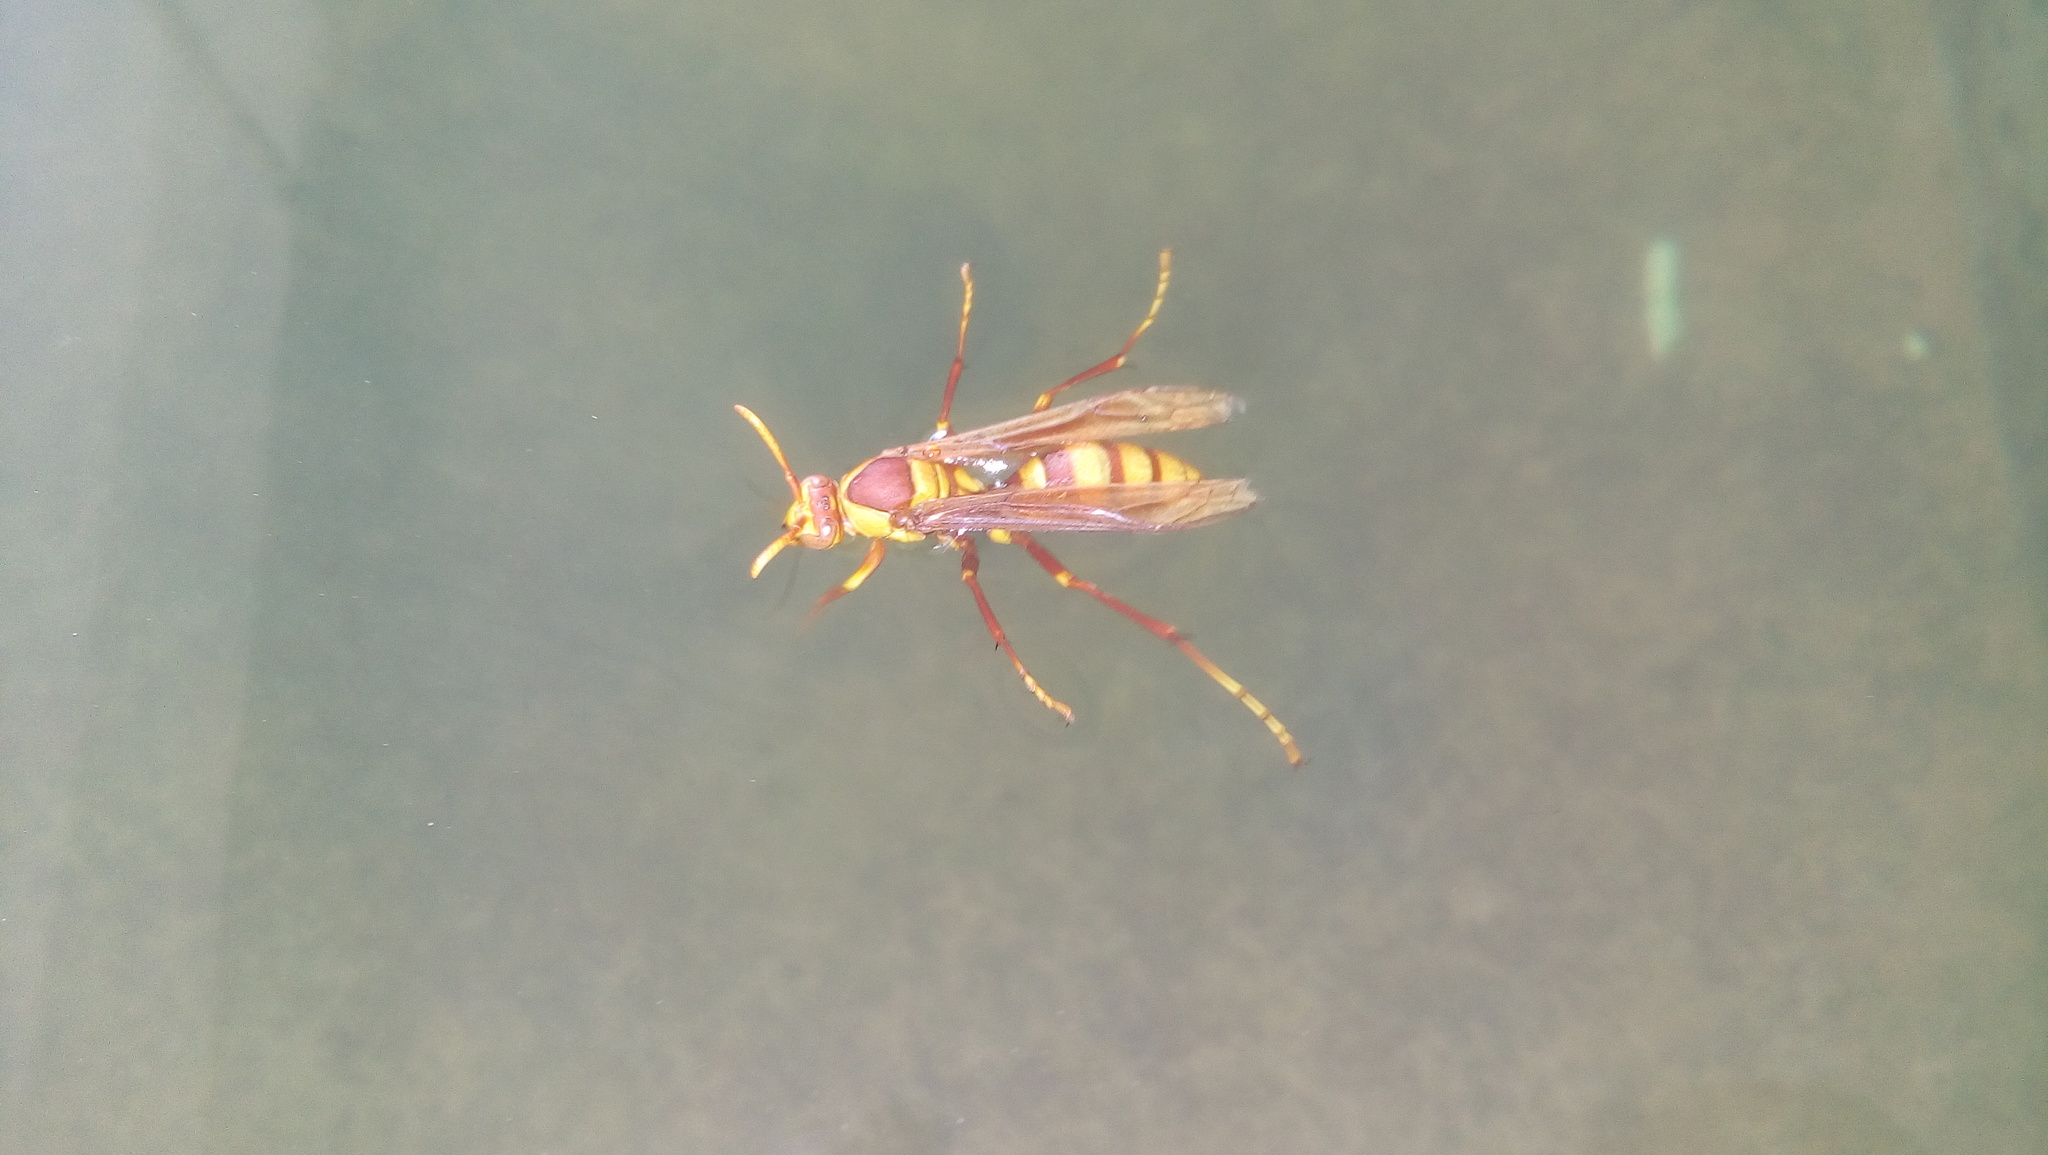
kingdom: Animalia
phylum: Arthropoda
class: Insecta
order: Hymenoptera
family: Eumenidae
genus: Polistes
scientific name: Polistes carnifex
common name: Paper wasp
